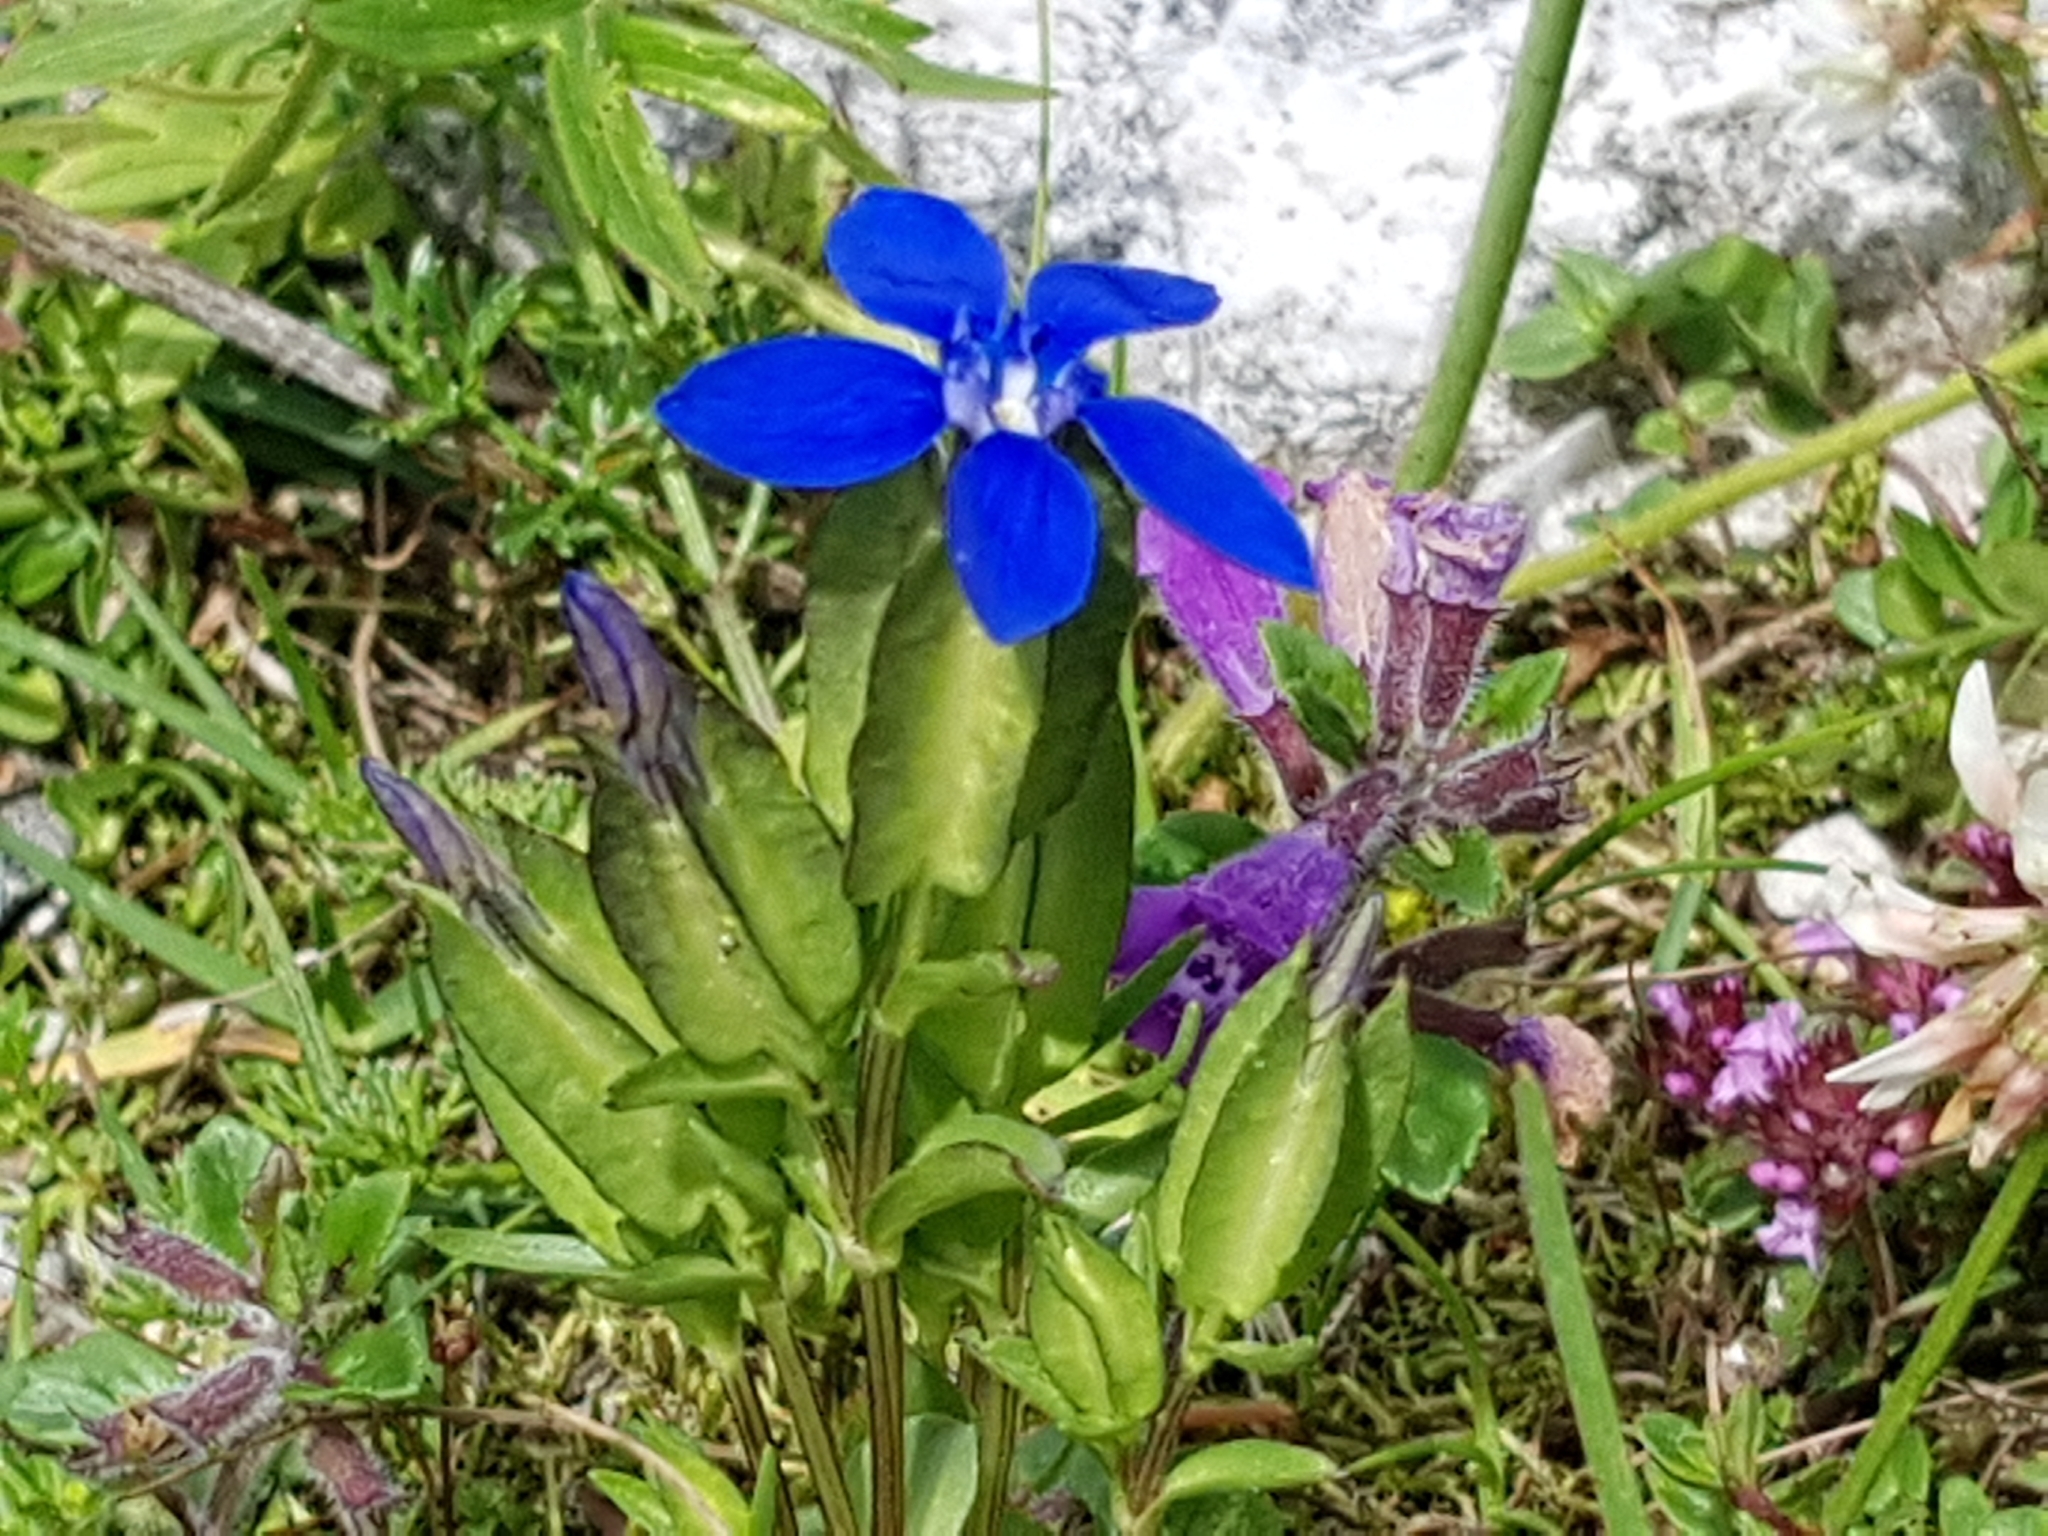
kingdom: Plantae
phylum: Tracheophyta
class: Magnoliopsida
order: Gentianales
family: Gentianaceae
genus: Gentiana
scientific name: Gentiana utriculosa
